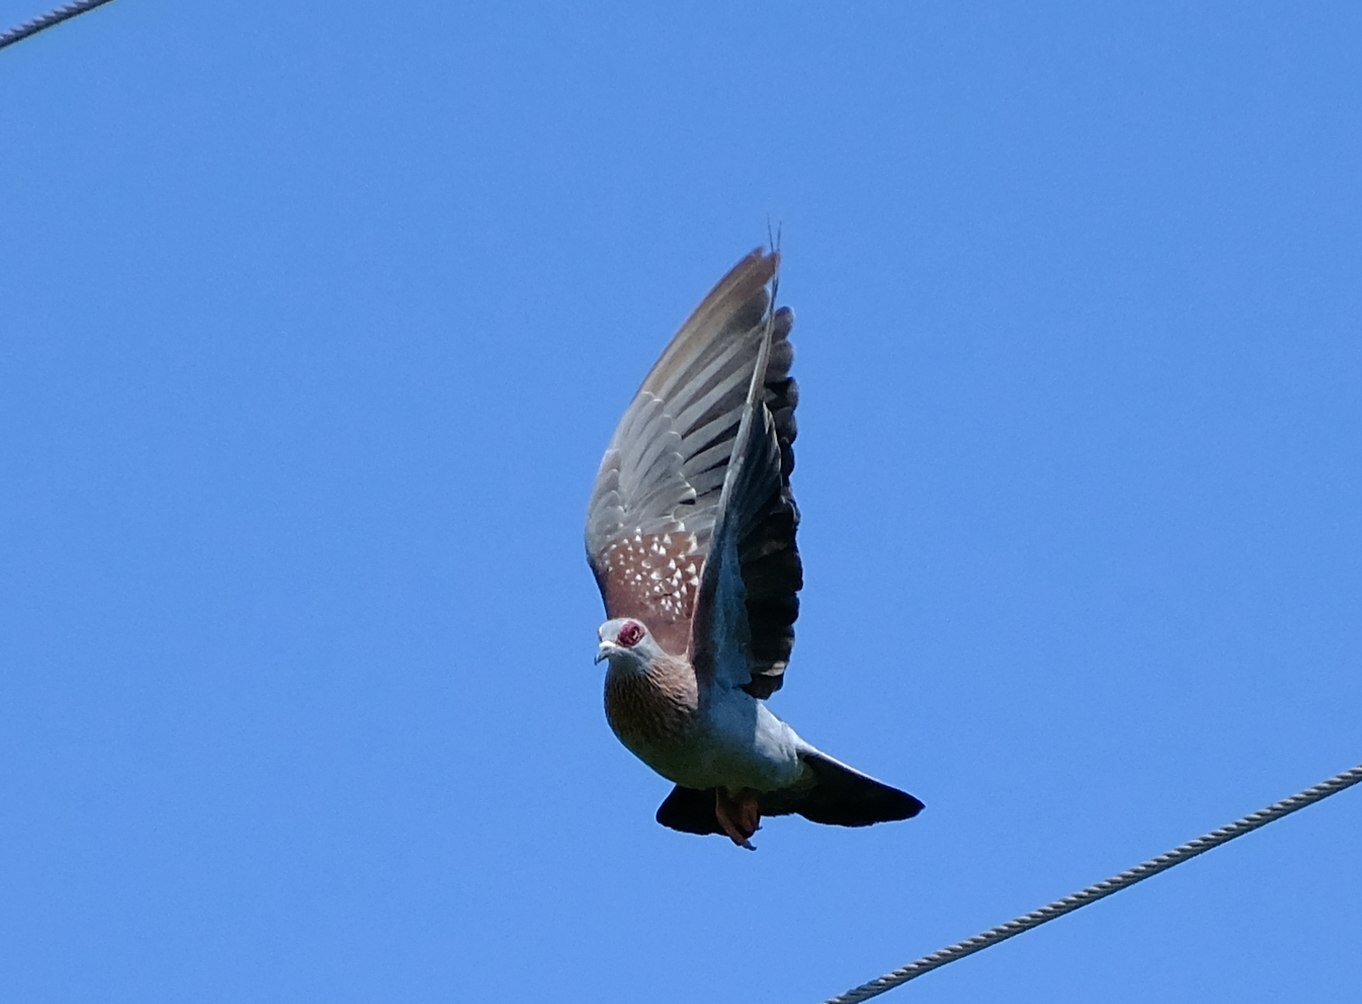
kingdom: Animalia
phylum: Chordata
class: Aves
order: Columbiformes
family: Columbidae
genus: Columba
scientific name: Columba guinea
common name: Speckled pigeon
